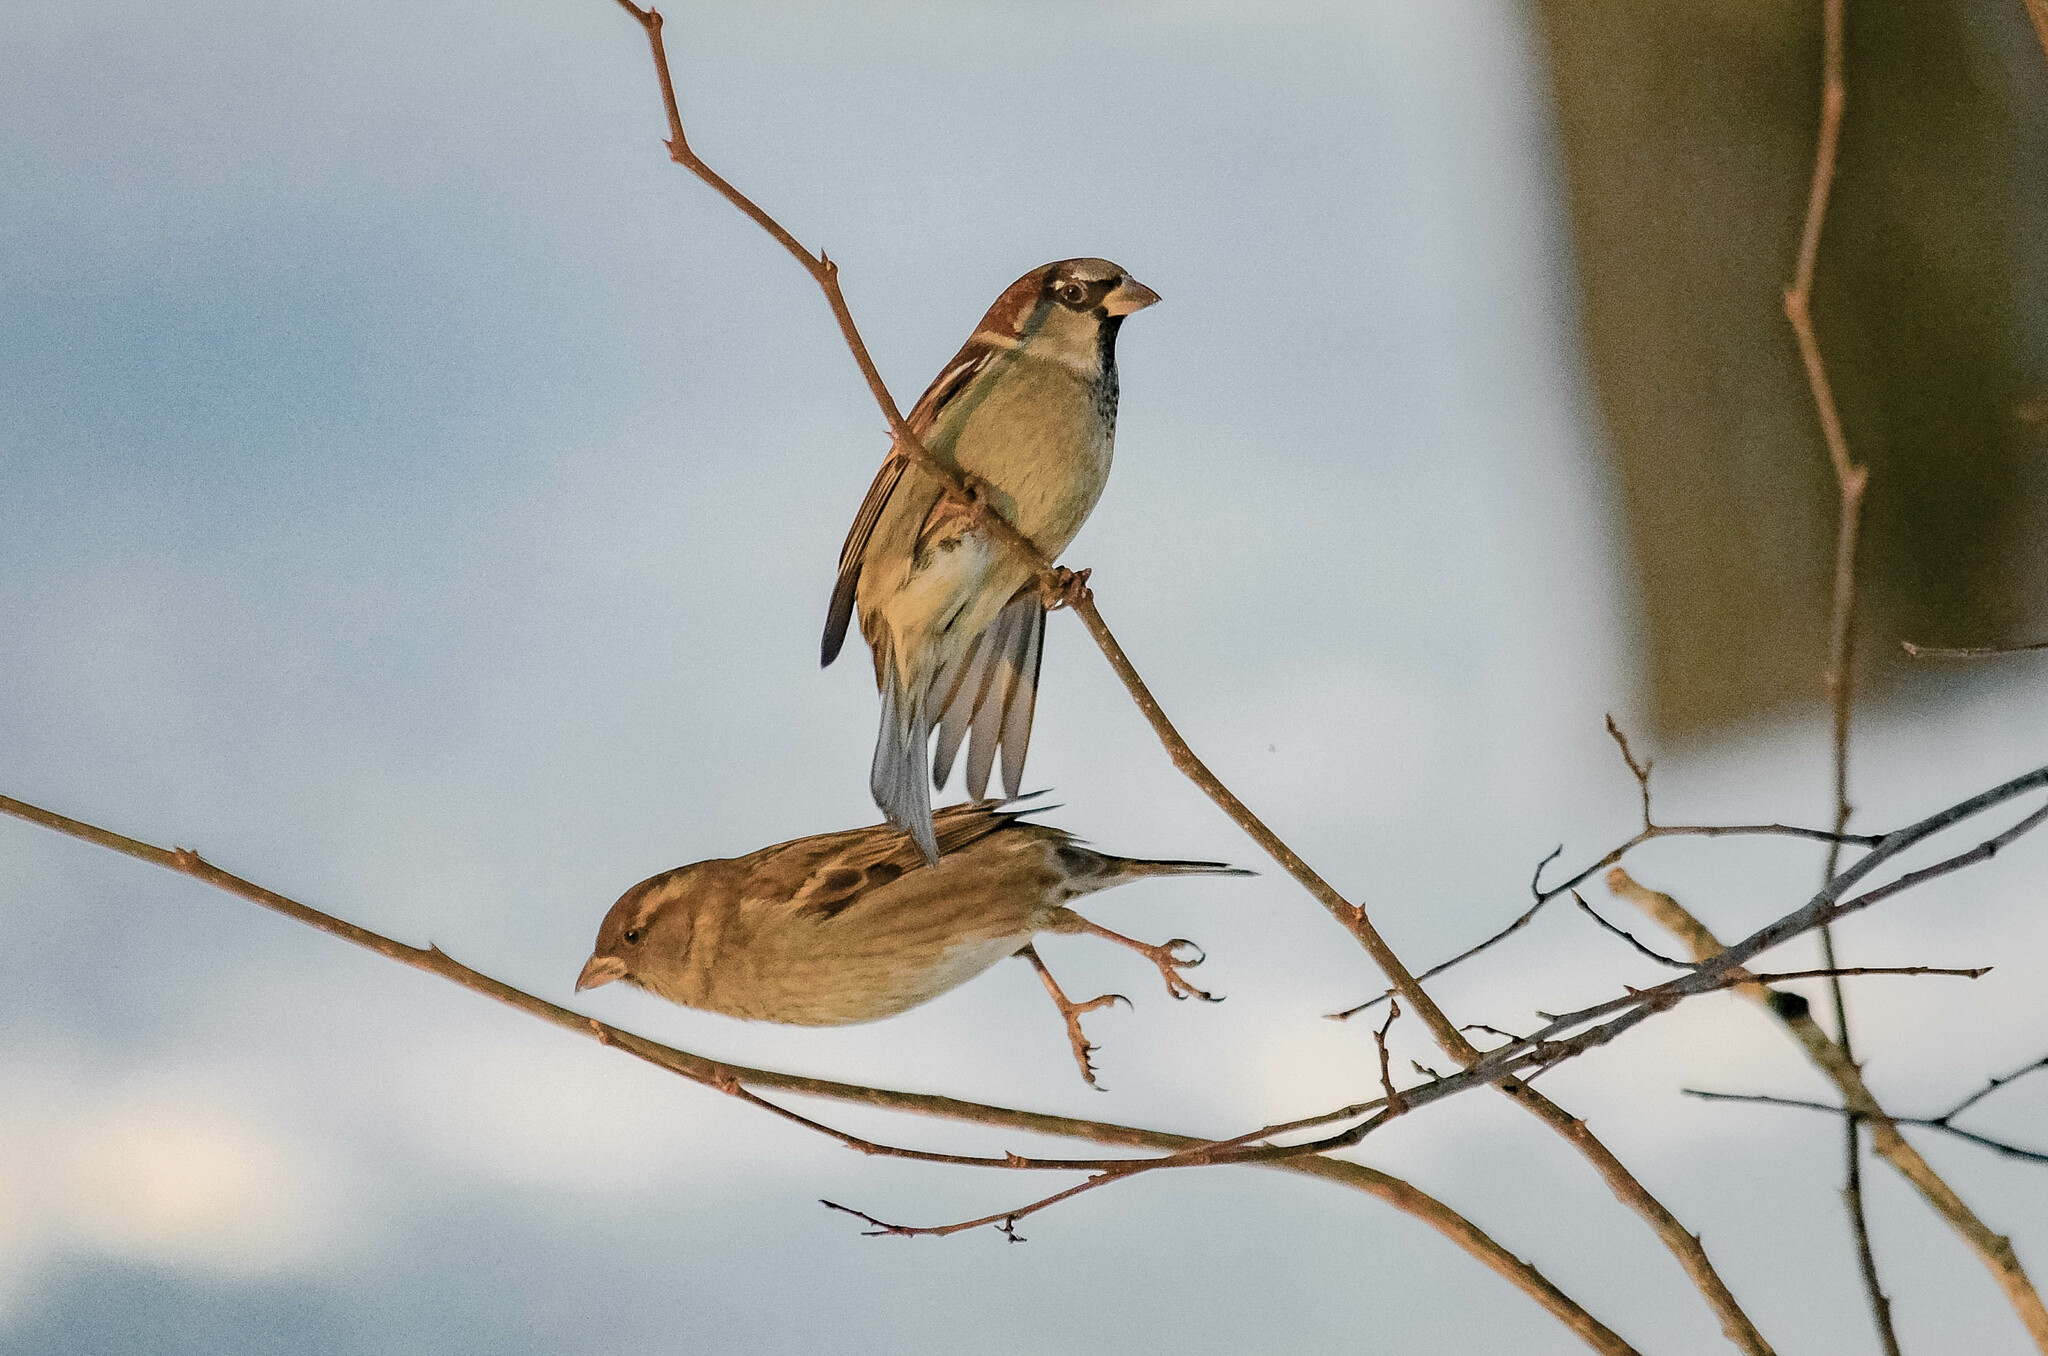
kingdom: Animalia
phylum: Chordata
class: Aves
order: Passeriformes
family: Passeridae
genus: Passer
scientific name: Passer domesticus
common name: House sparrow
